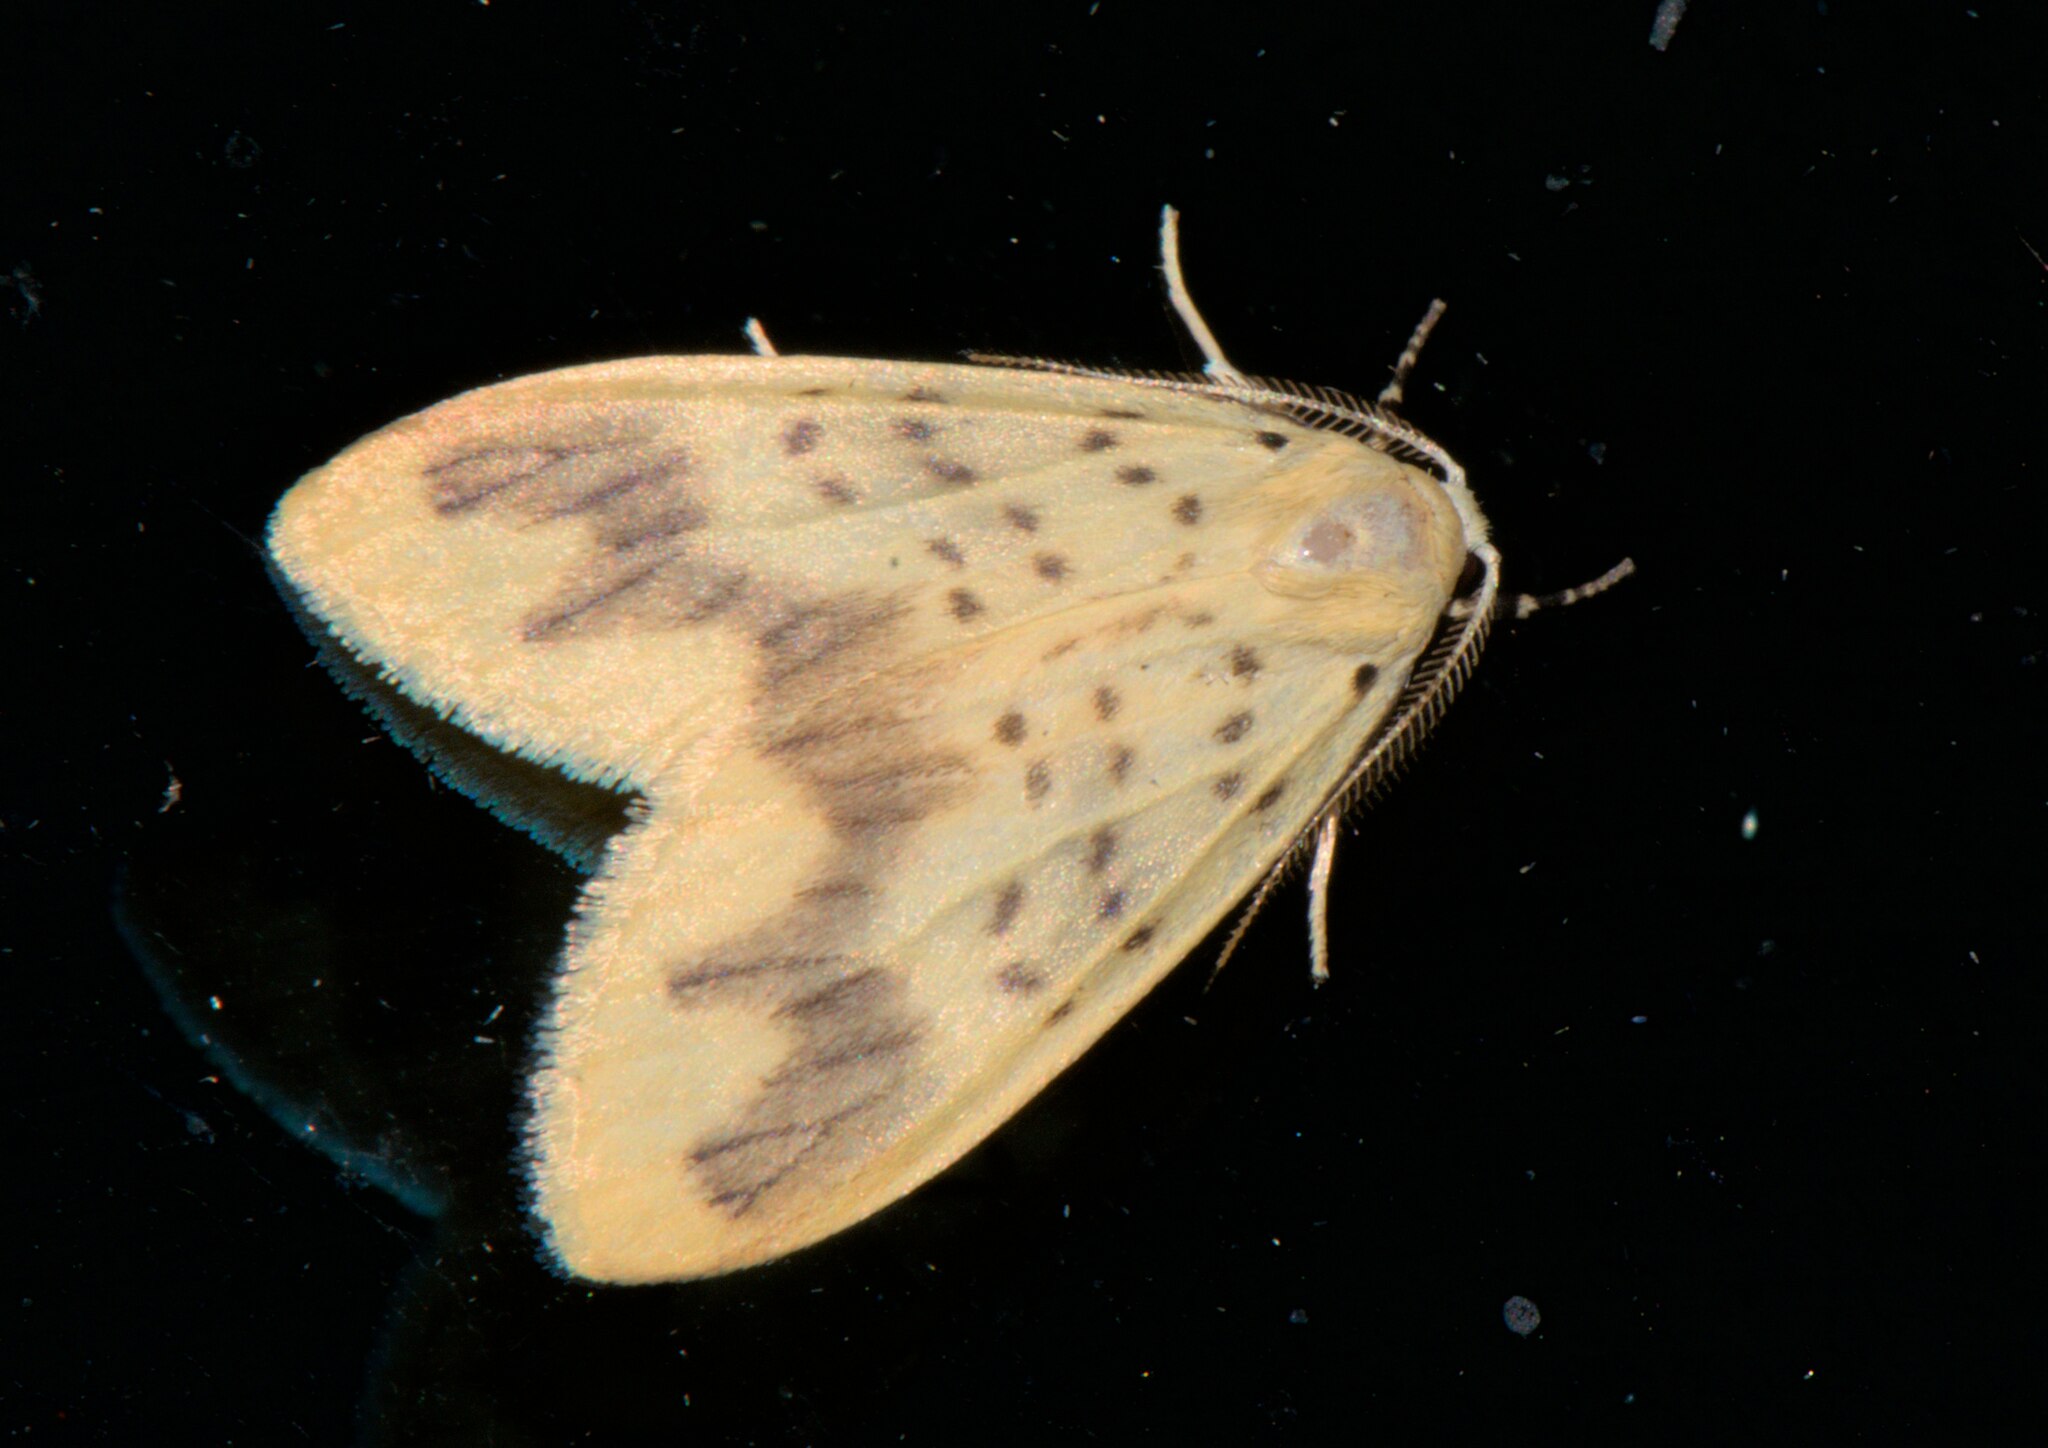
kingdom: Animalia
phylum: Arthropoda
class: Insecta
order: Lepidoptera
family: Erebidae
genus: Barsura
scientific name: Barsura nubifascia
